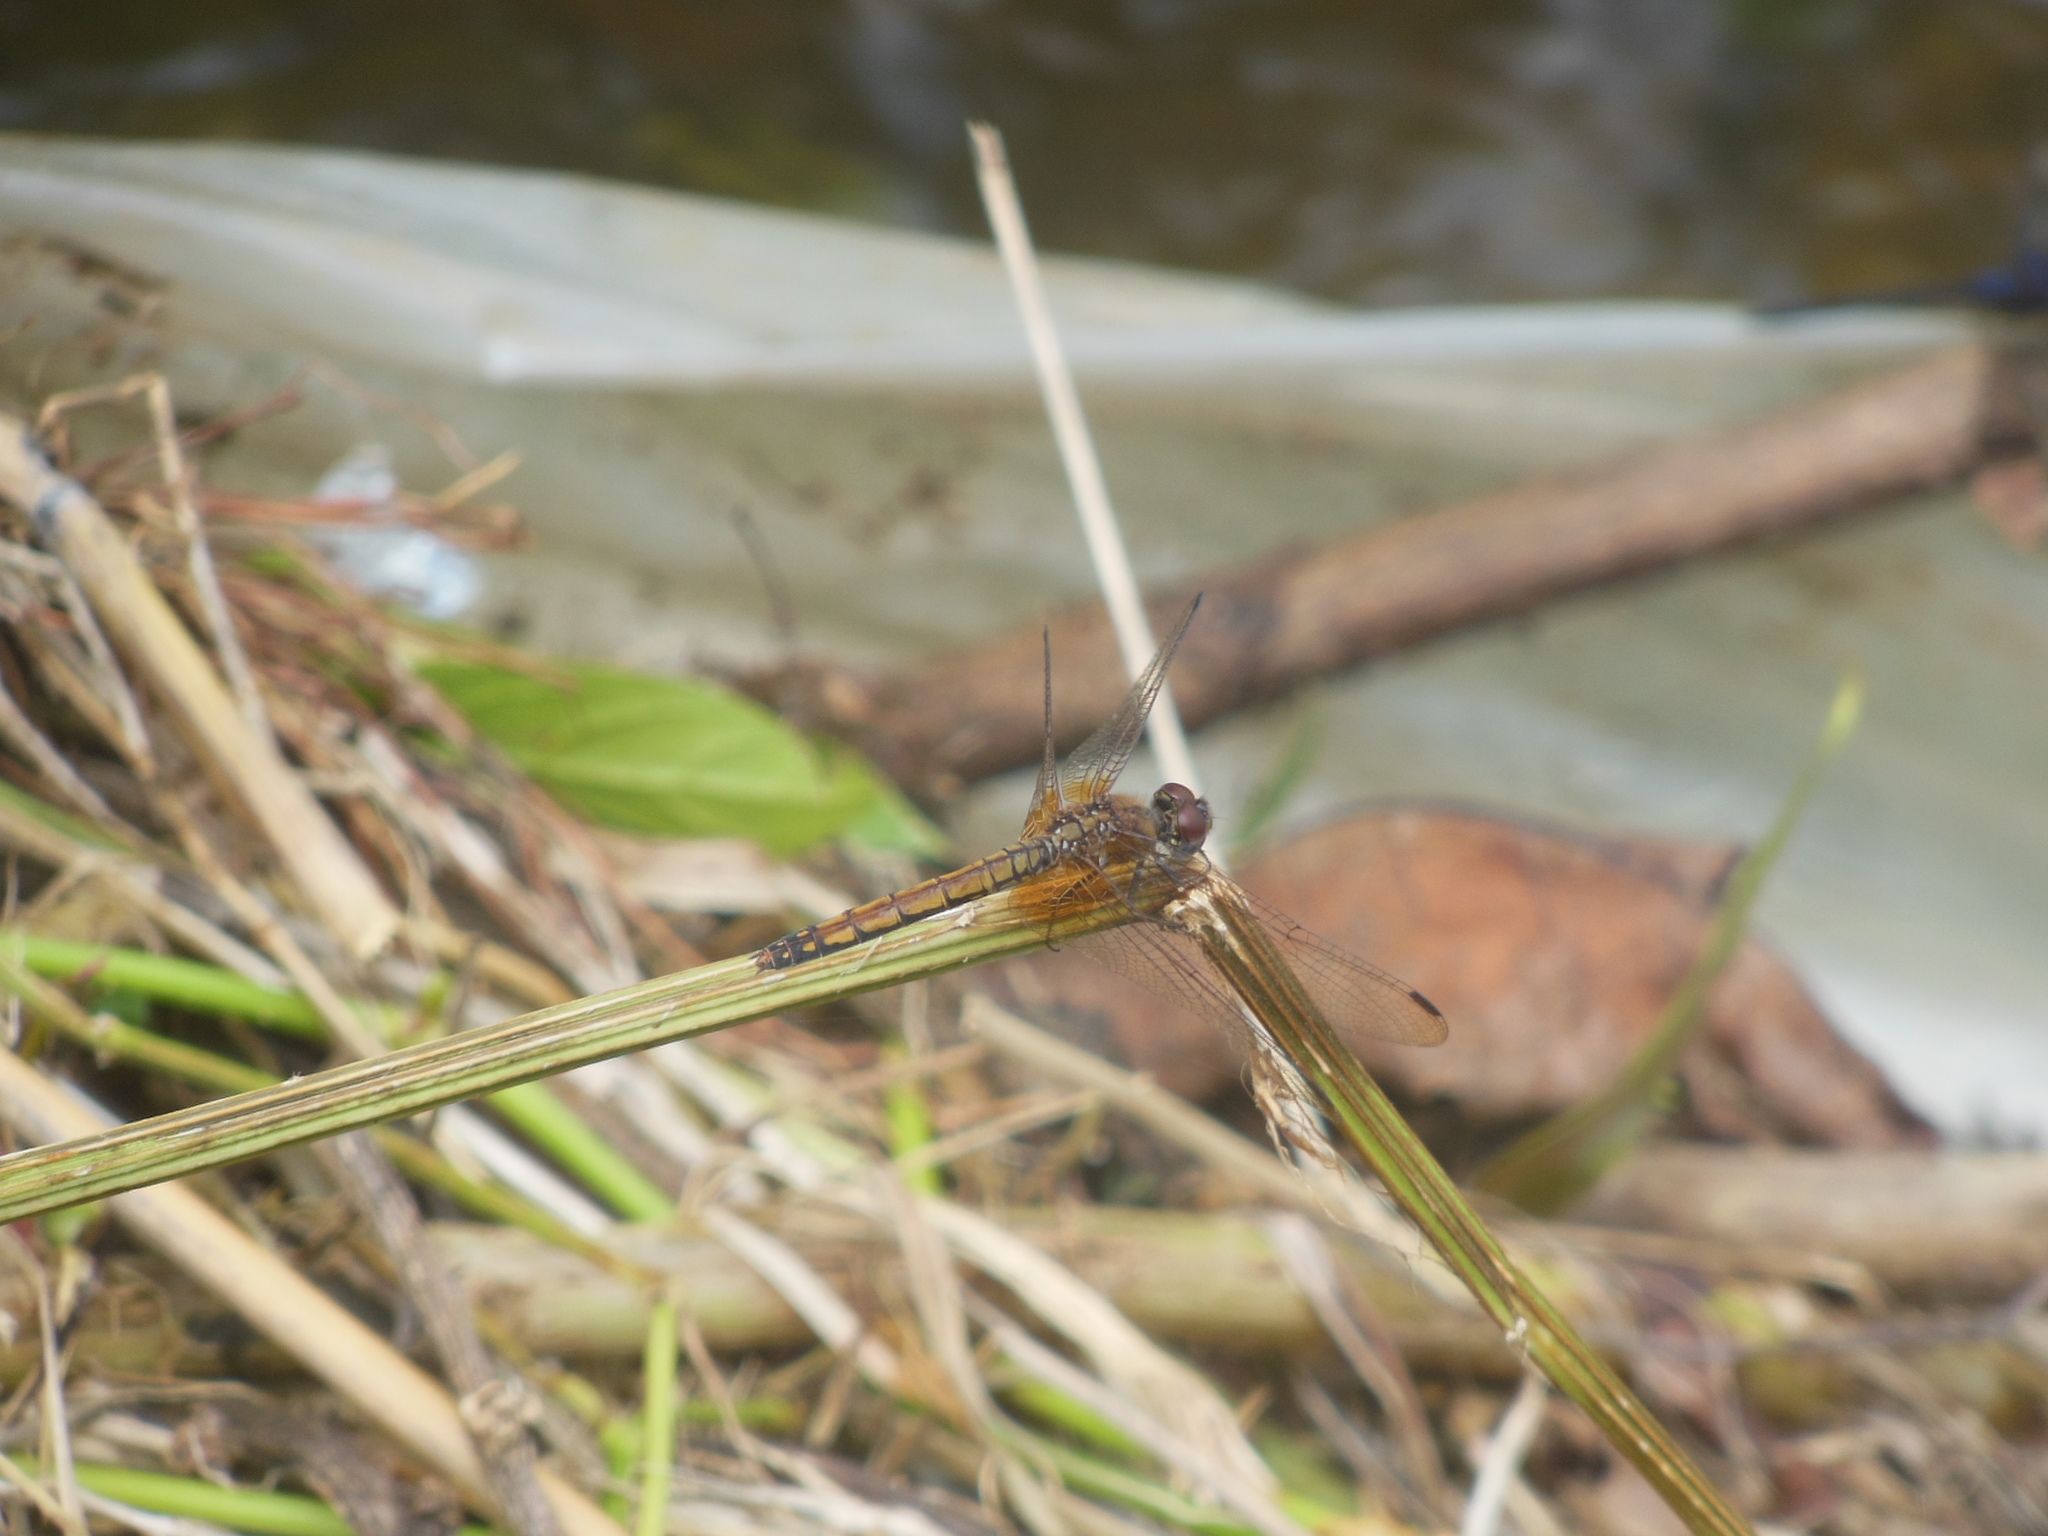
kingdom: Animalia
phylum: Arthropoda
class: Insecta
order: Odonata
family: Libellulidae
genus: Trithemis
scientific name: Trithemis aurora
